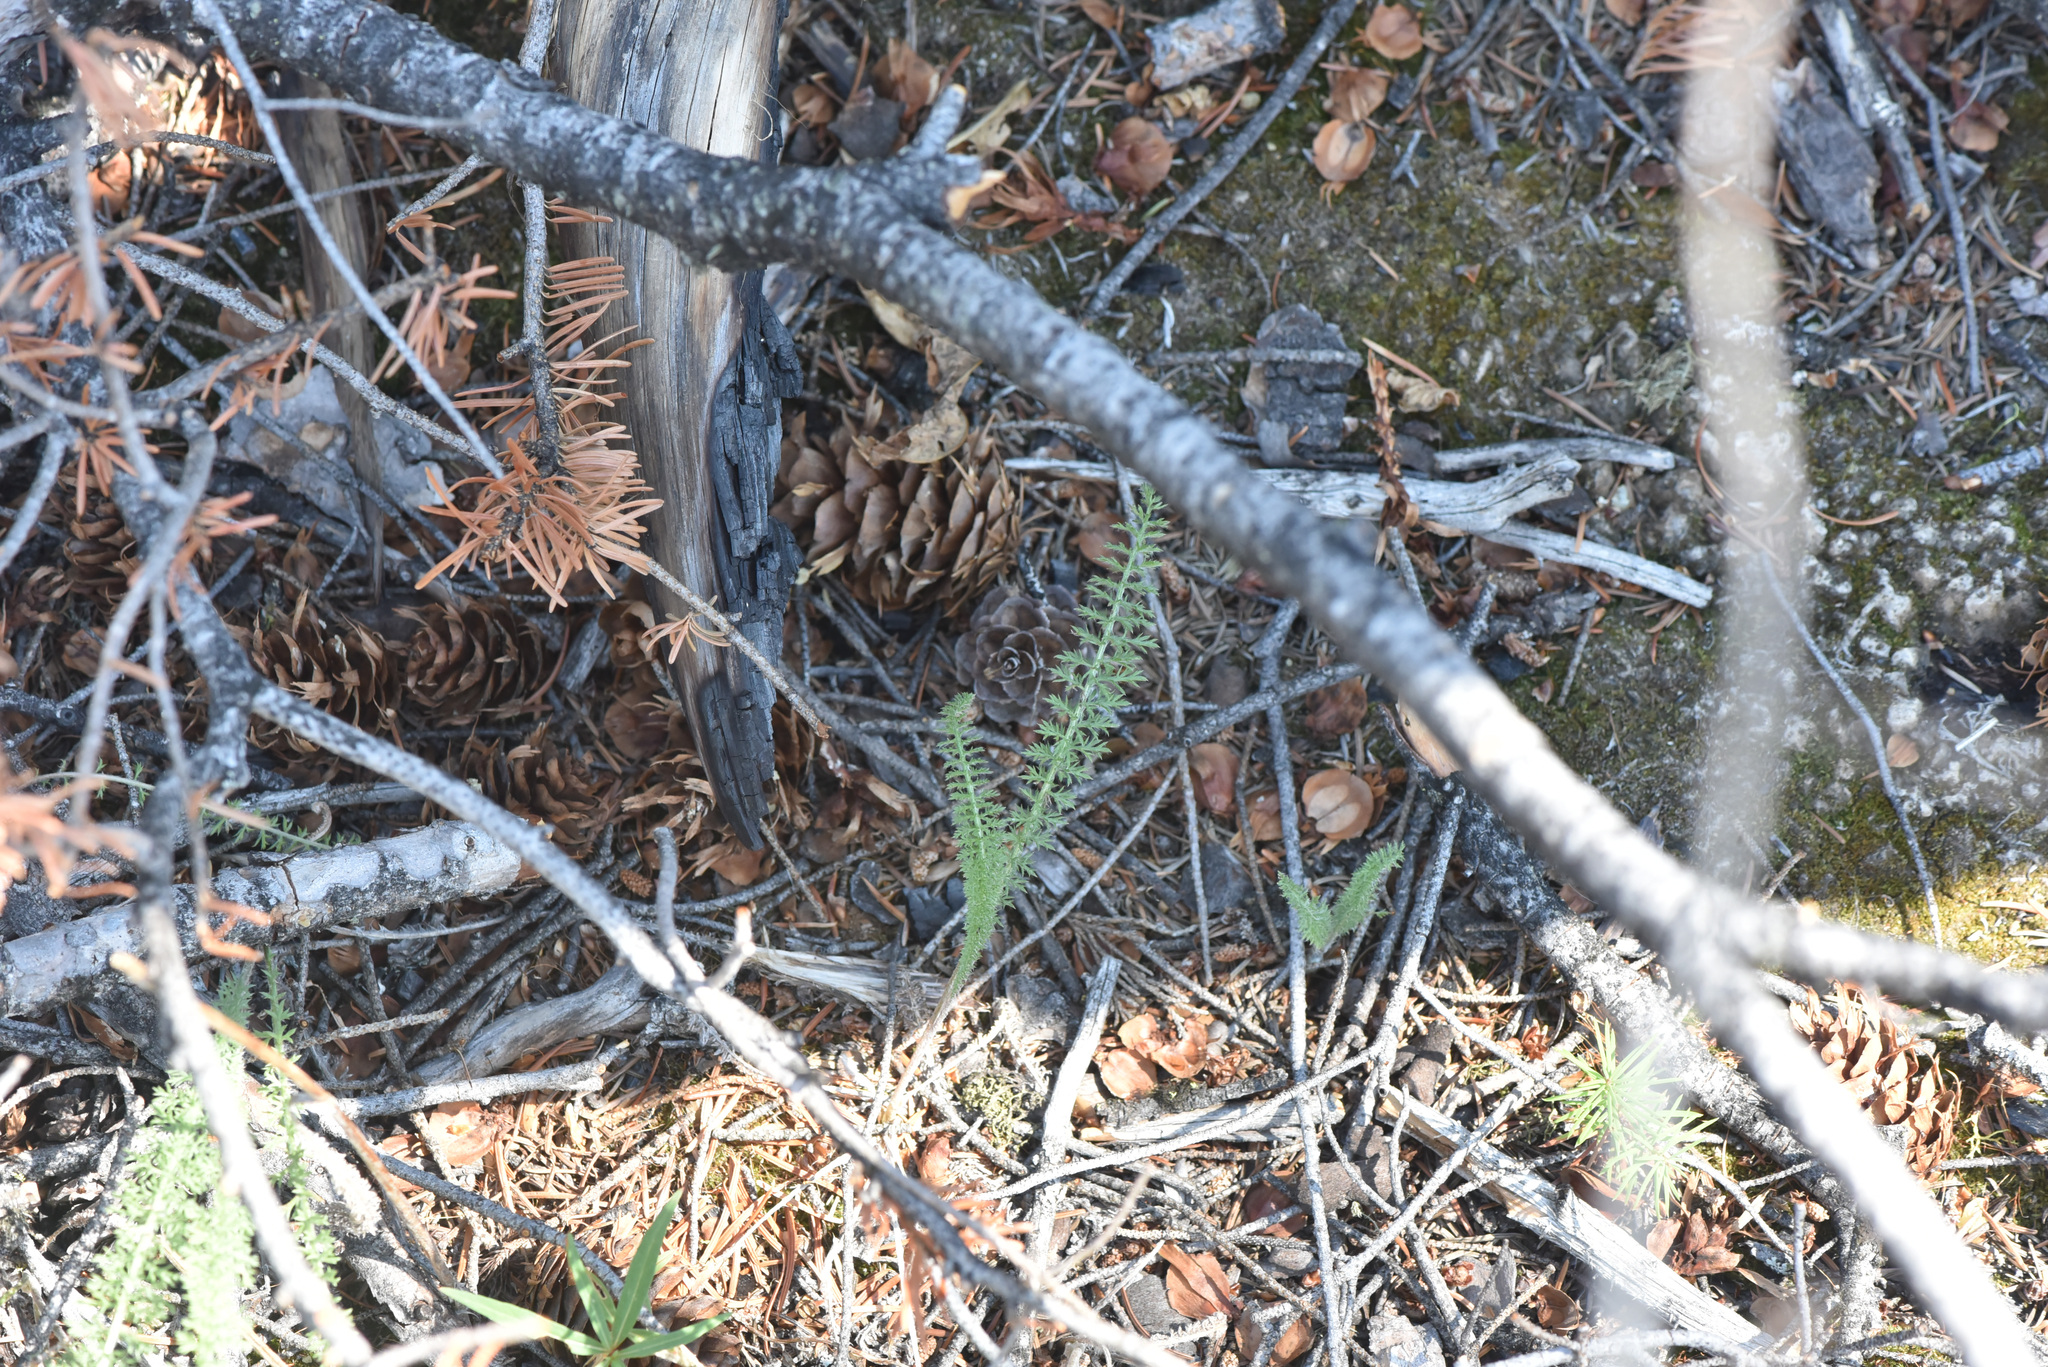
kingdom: Plantae
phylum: Tracheophyta
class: Magnoliopsida
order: Asterales
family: Asteraceae
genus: Achillea
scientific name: Achillea millefolium
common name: Yarrow
